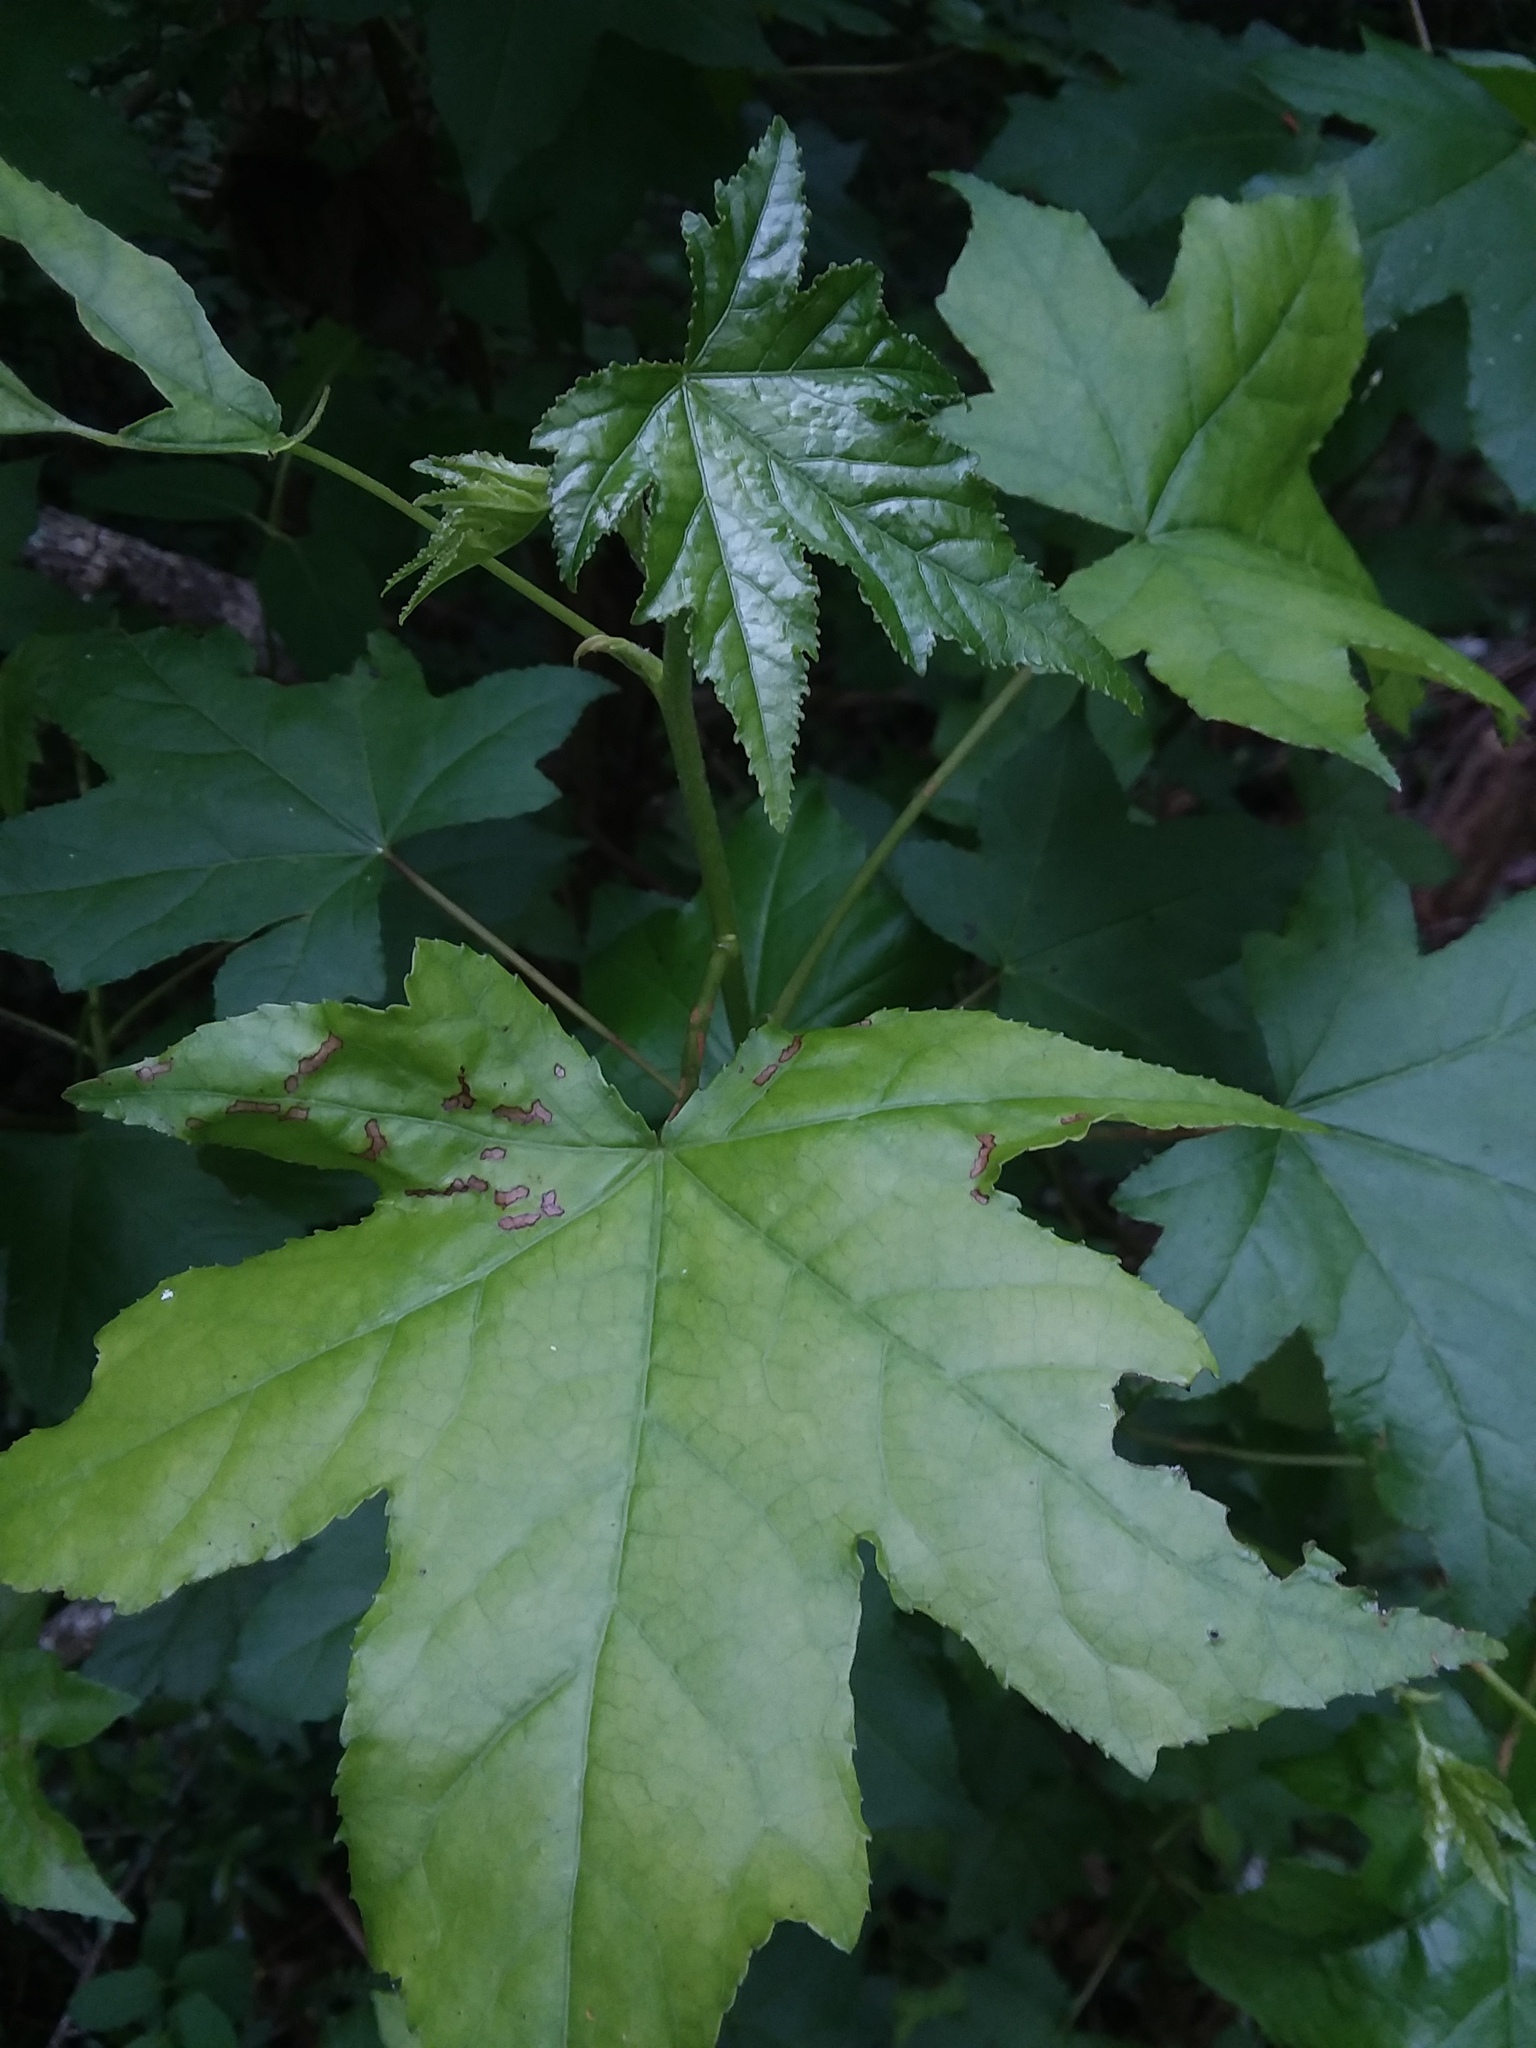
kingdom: Plantae
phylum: Tracheophyta
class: Magnoliopsida
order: Saxifragales
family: Altingiaceae
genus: Liquidambar
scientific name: Liquidambar styraciflua
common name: Sweet gum
